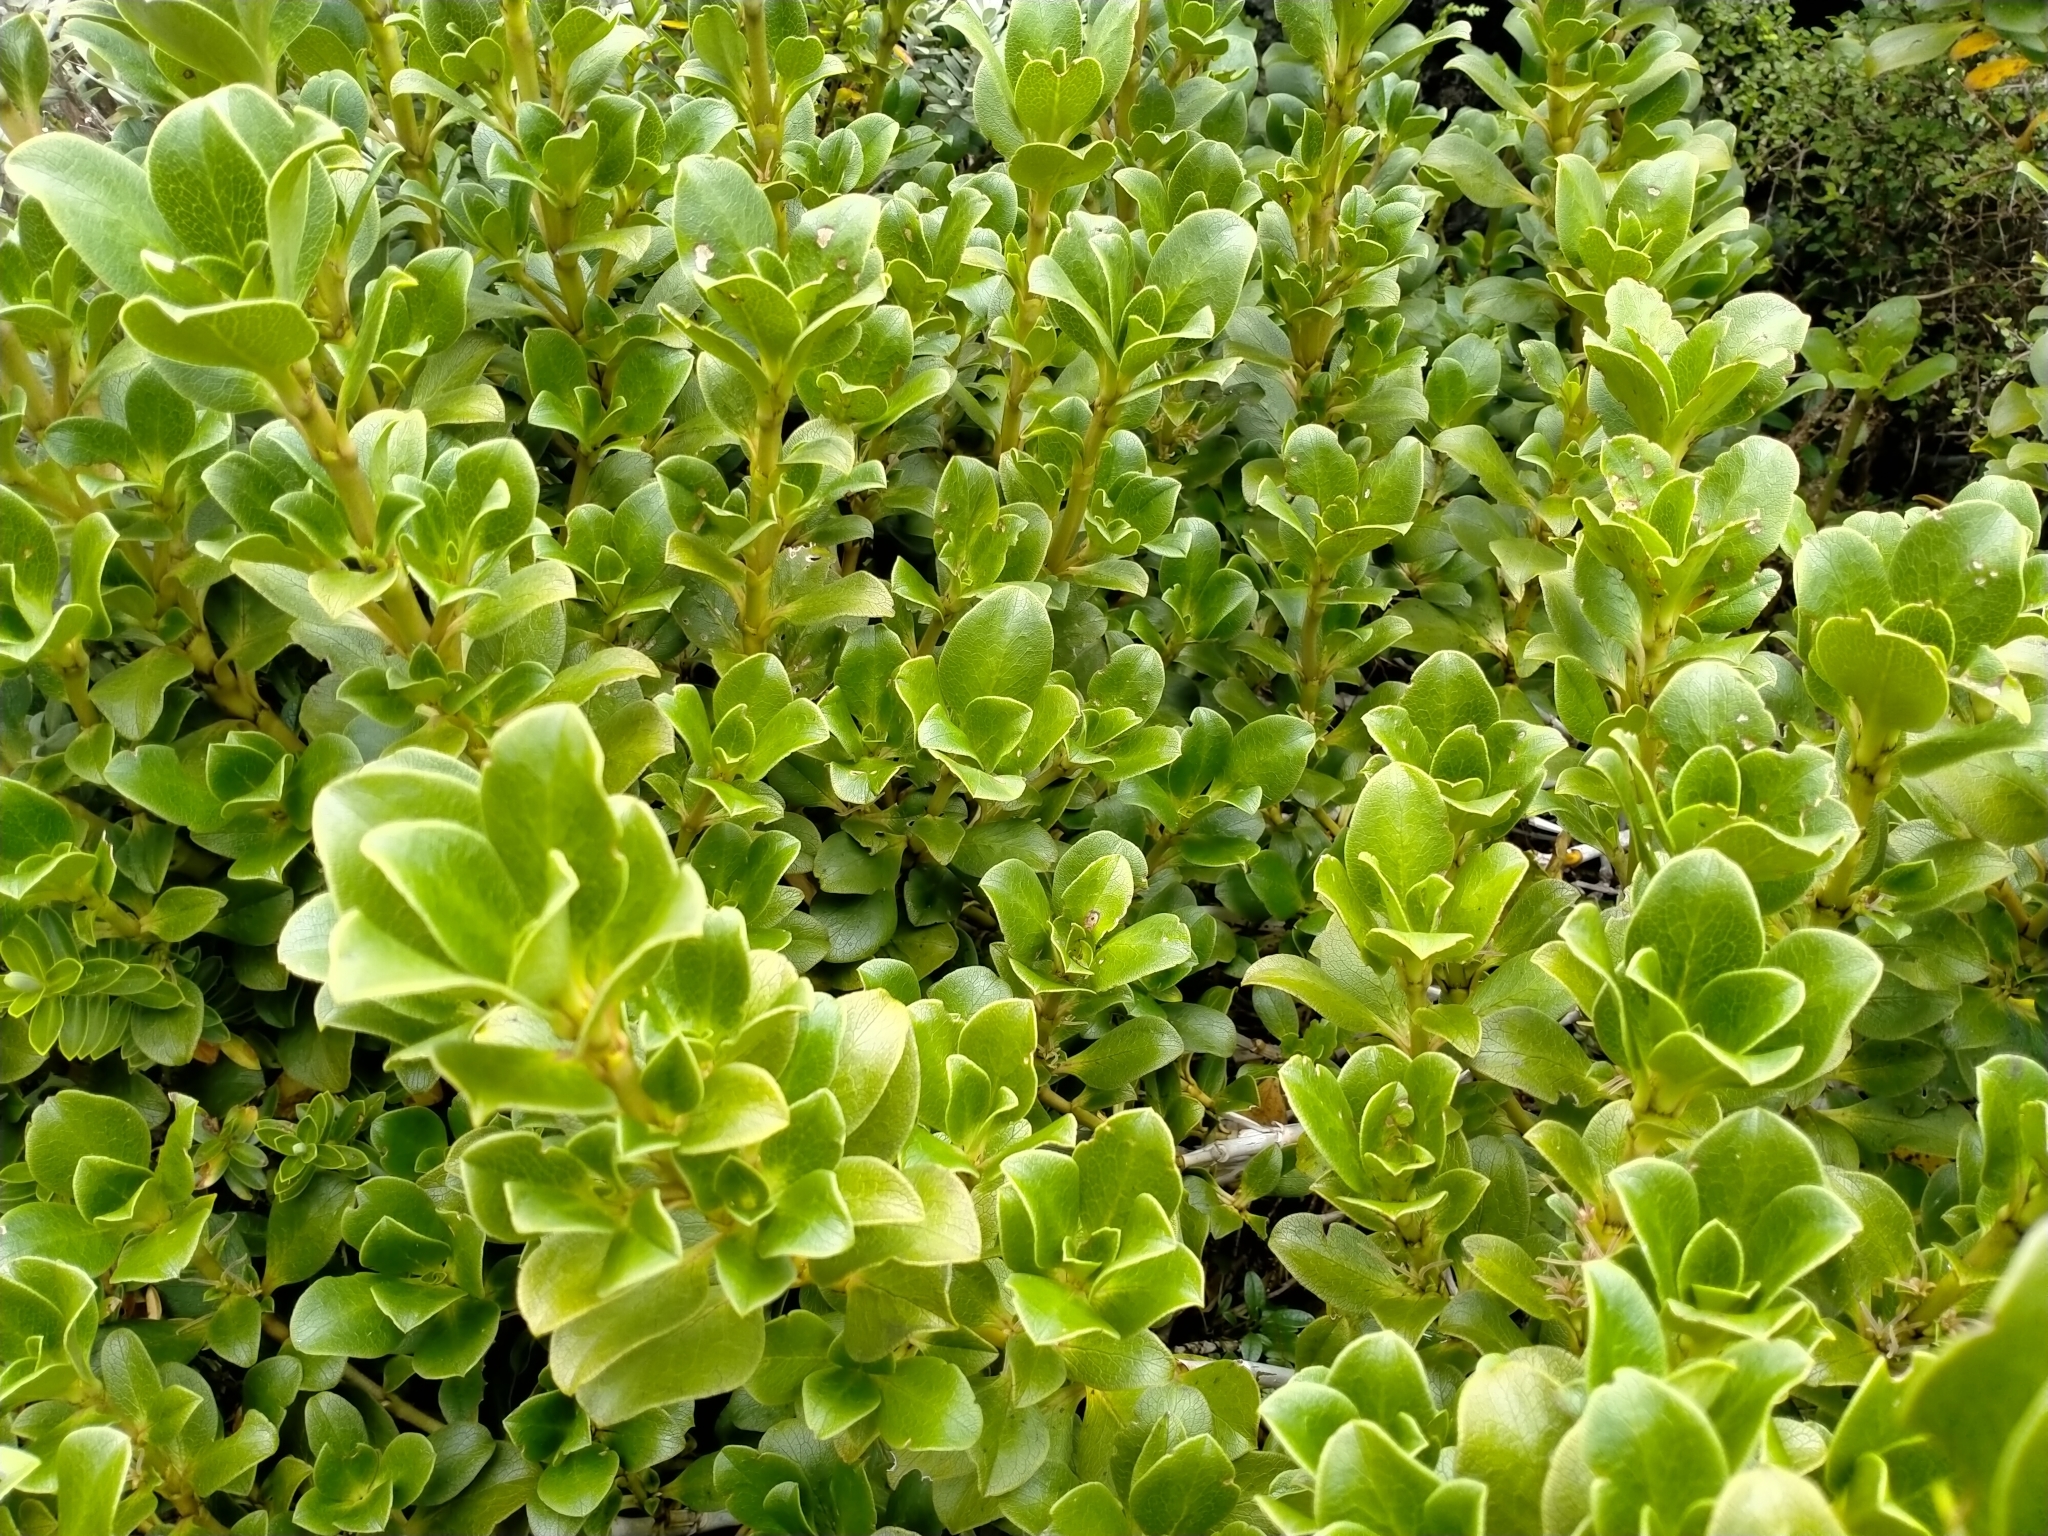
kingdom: Plantae
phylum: Tracheophyta
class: Magnoliopsida
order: Gentianales
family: Rubiaceae
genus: Coprosma
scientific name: Coprosma serrulata
